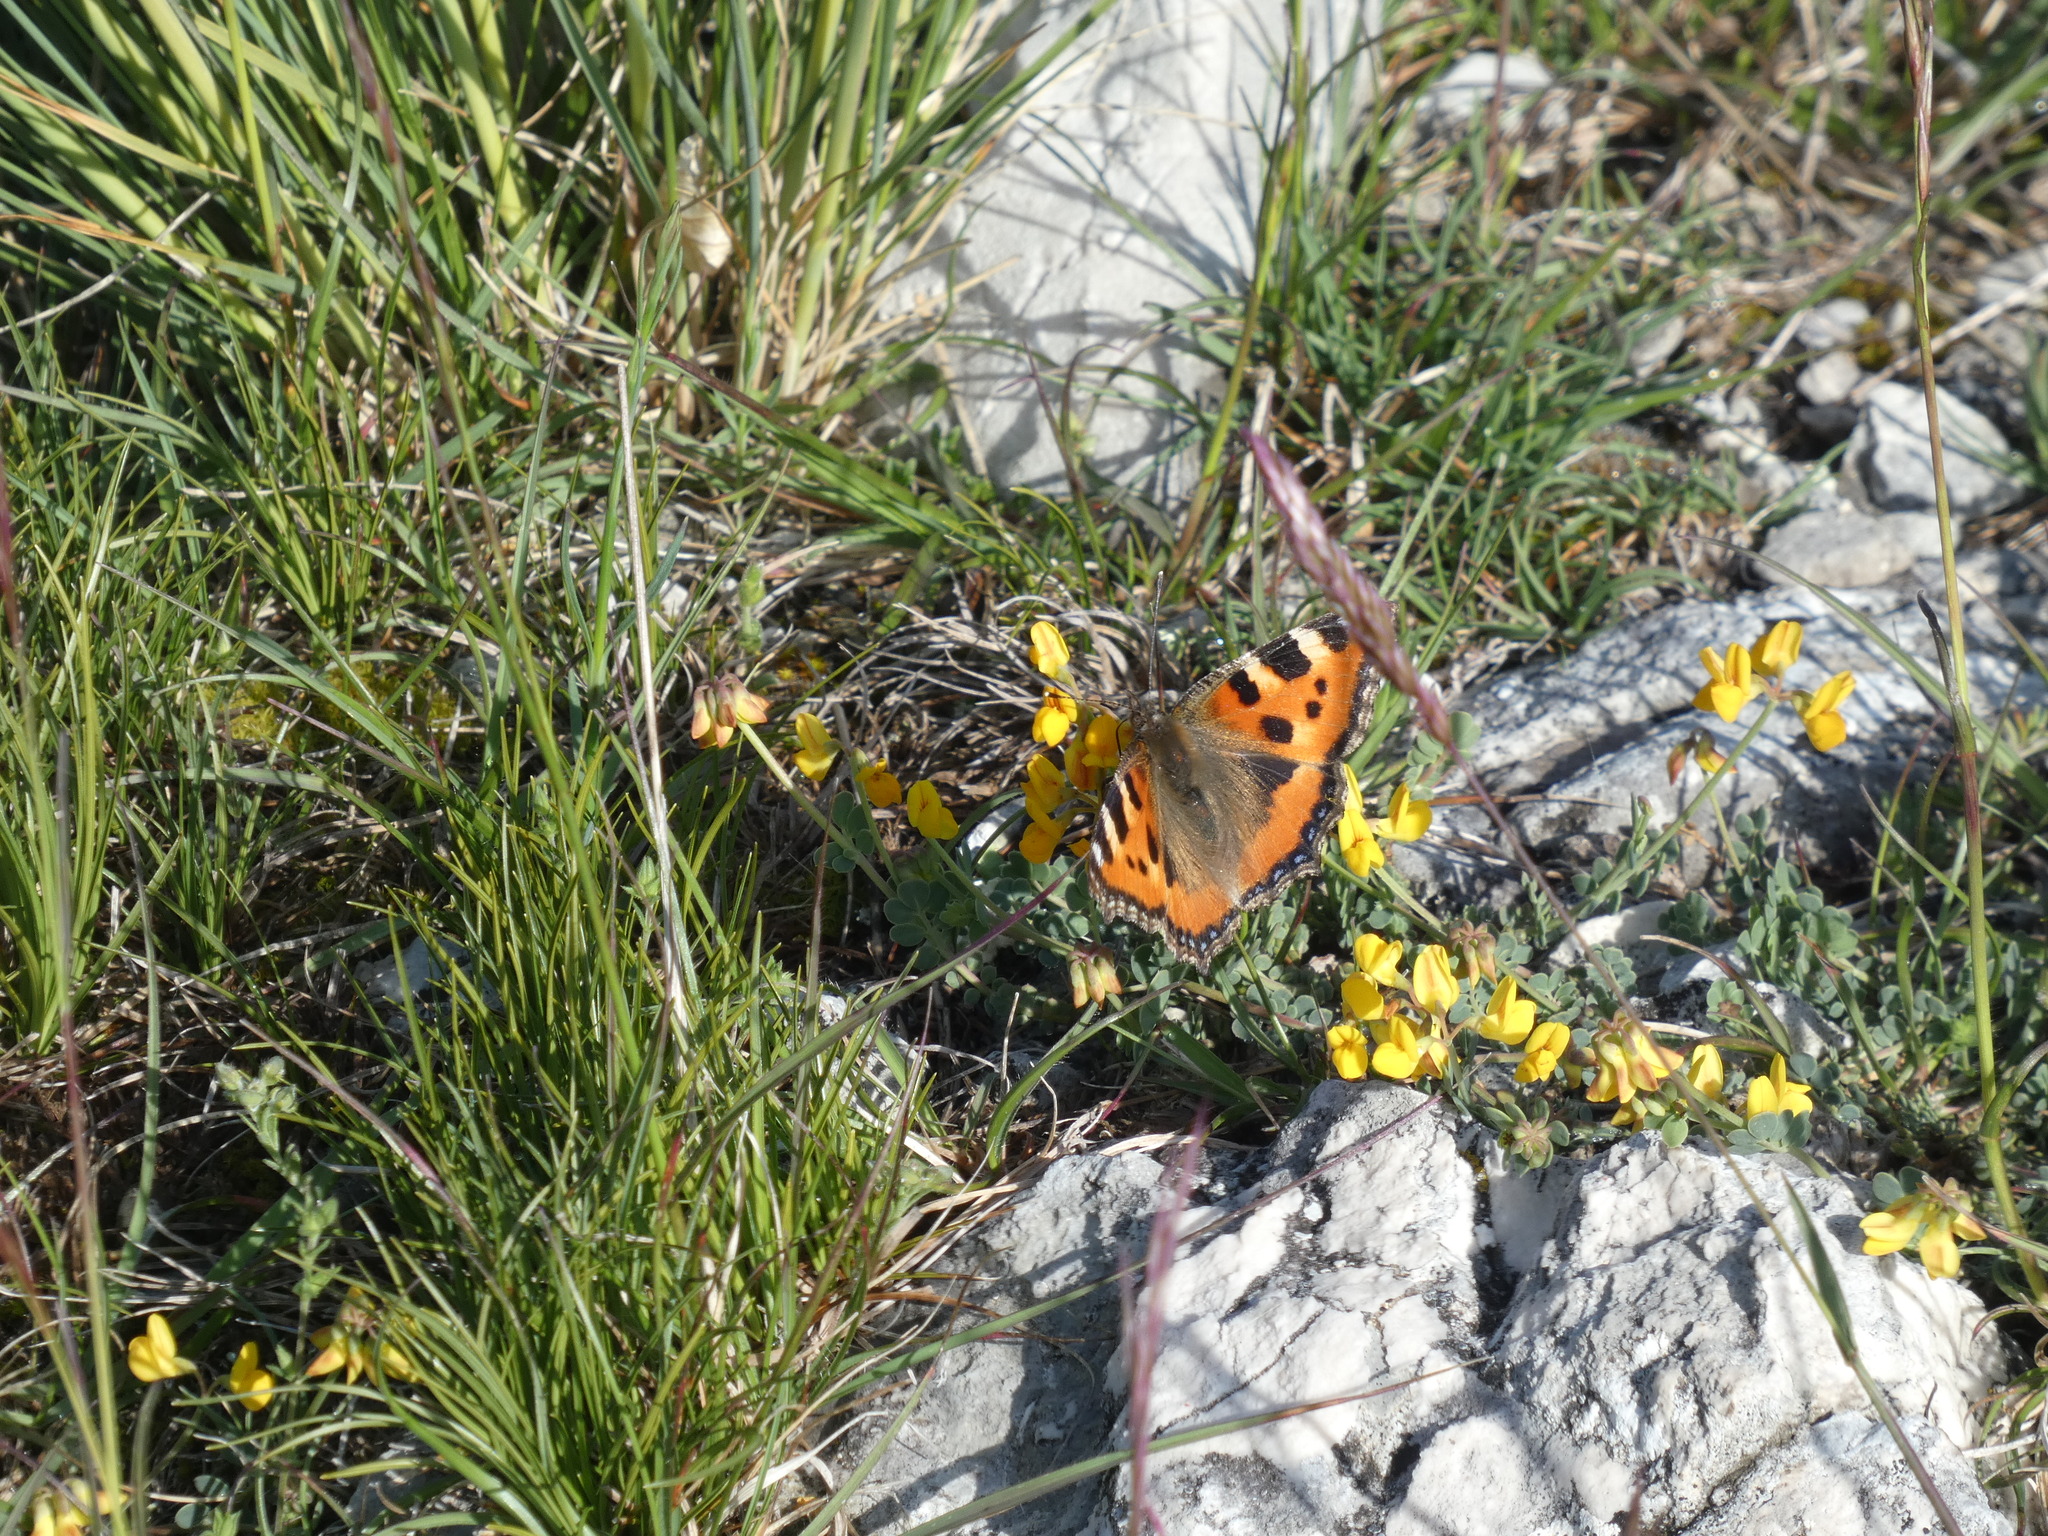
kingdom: Animalia
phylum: Arthropoda
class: Insecta
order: Lepidoptera
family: Nymphalidae
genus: Aglais
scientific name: Aglais urticae
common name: Small tortoiseshell
